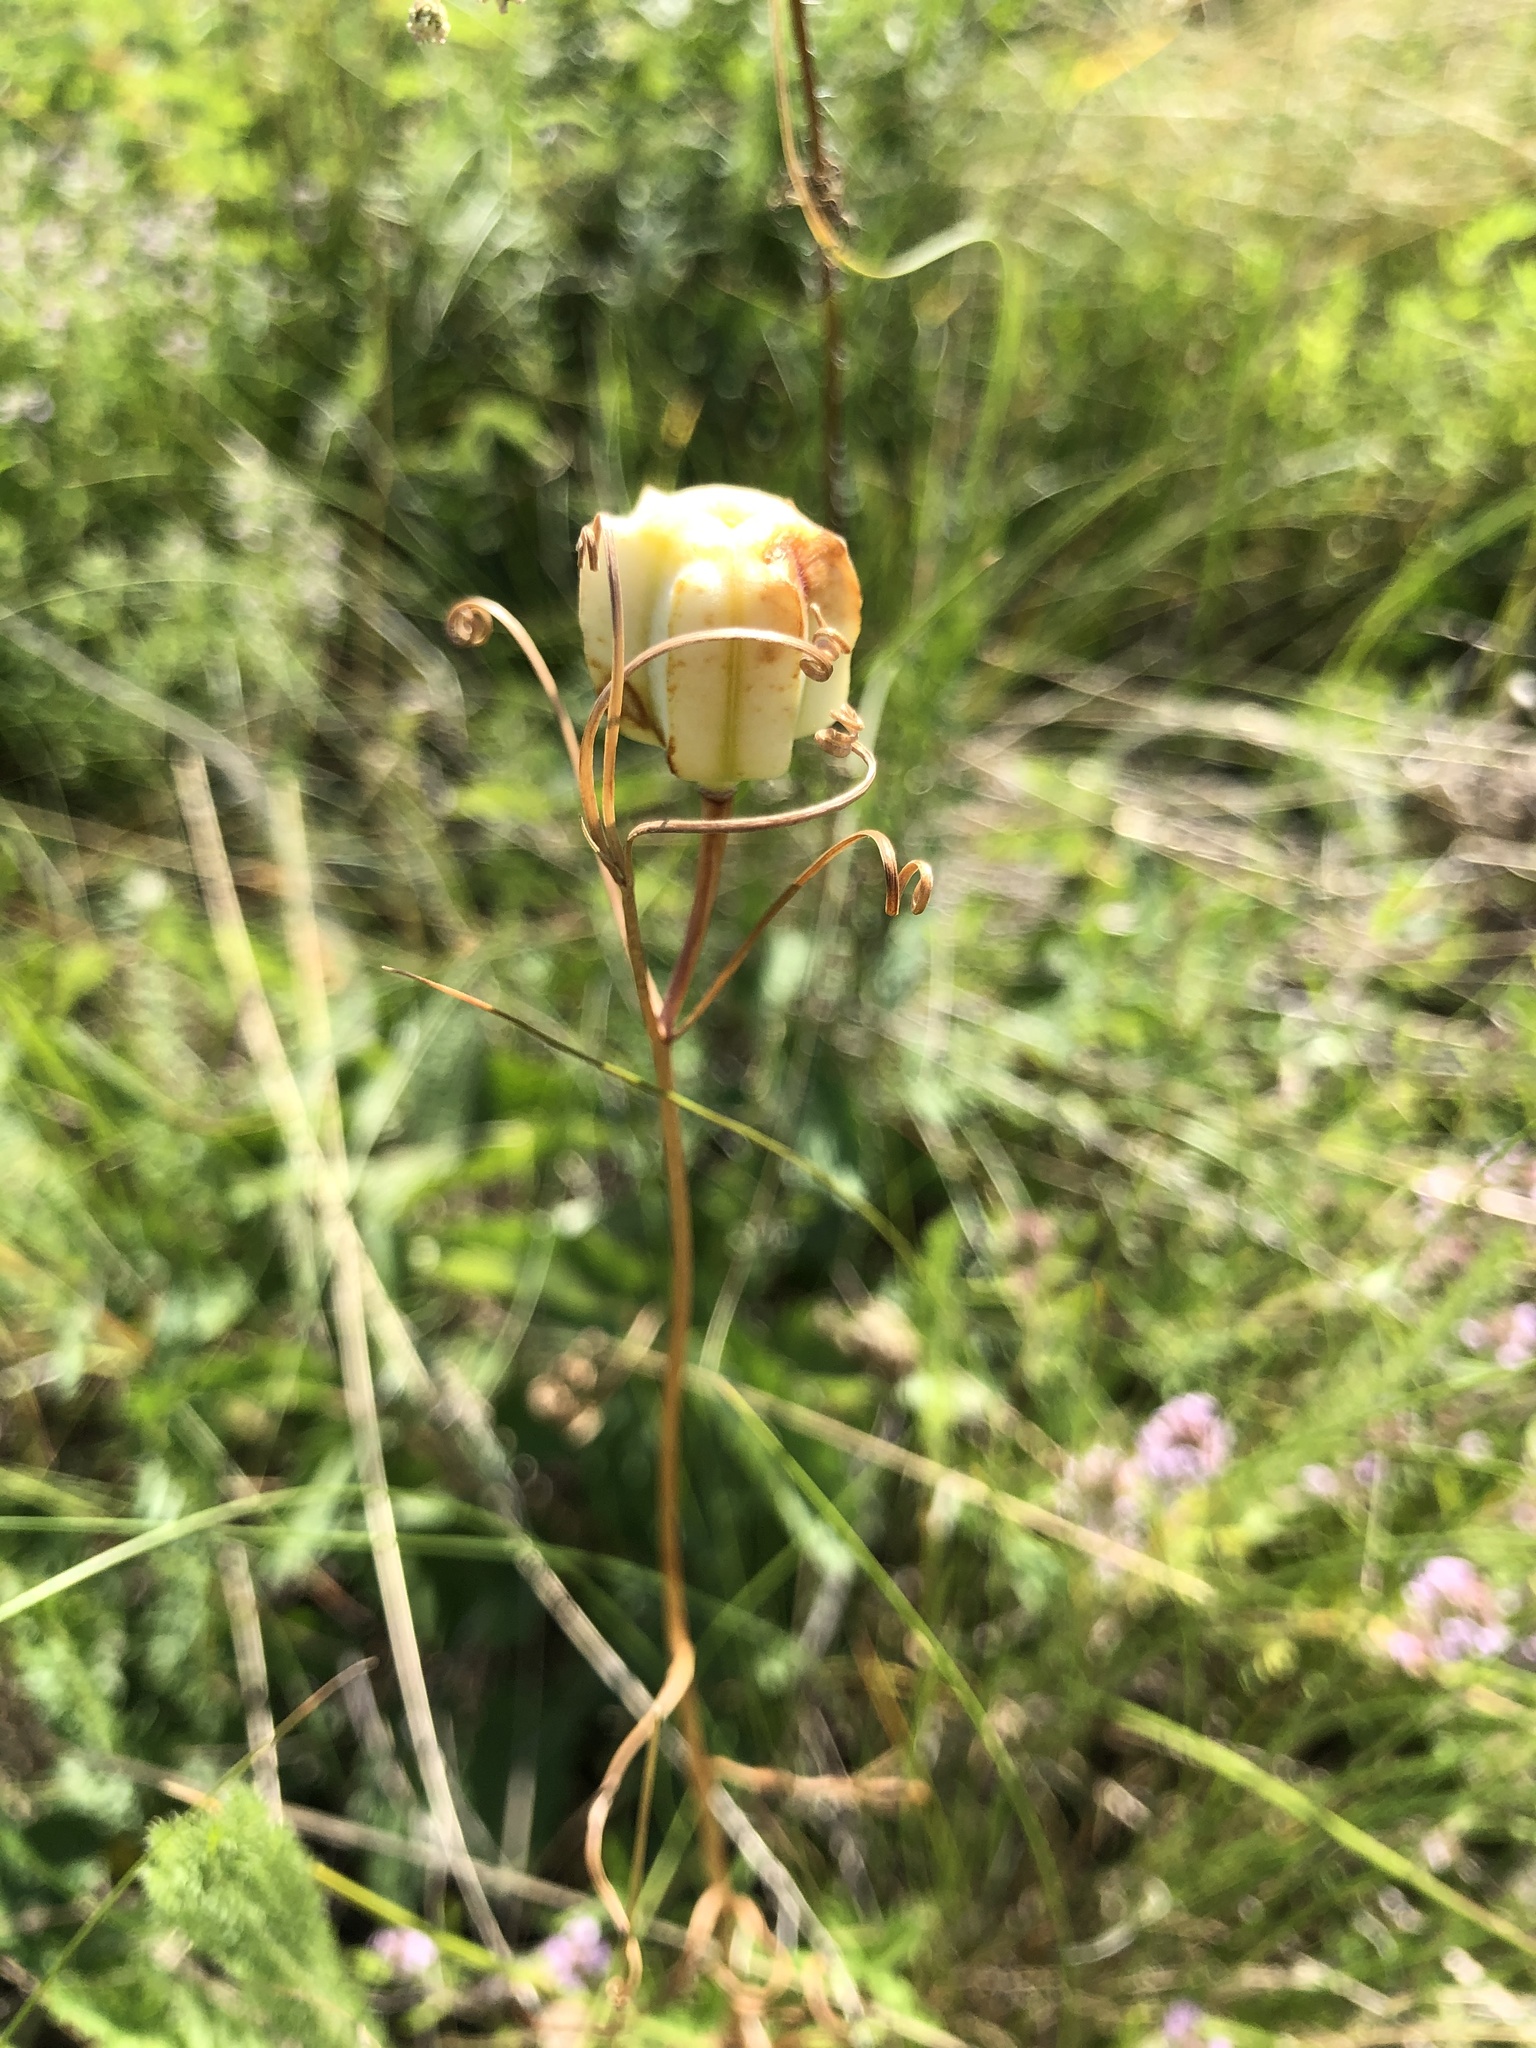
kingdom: Plantae
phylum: Tracheophyta
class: Liliopsida
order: Liliales
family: Liliaceae
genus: Fritillaria
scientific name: Fritillaria ruthenica
